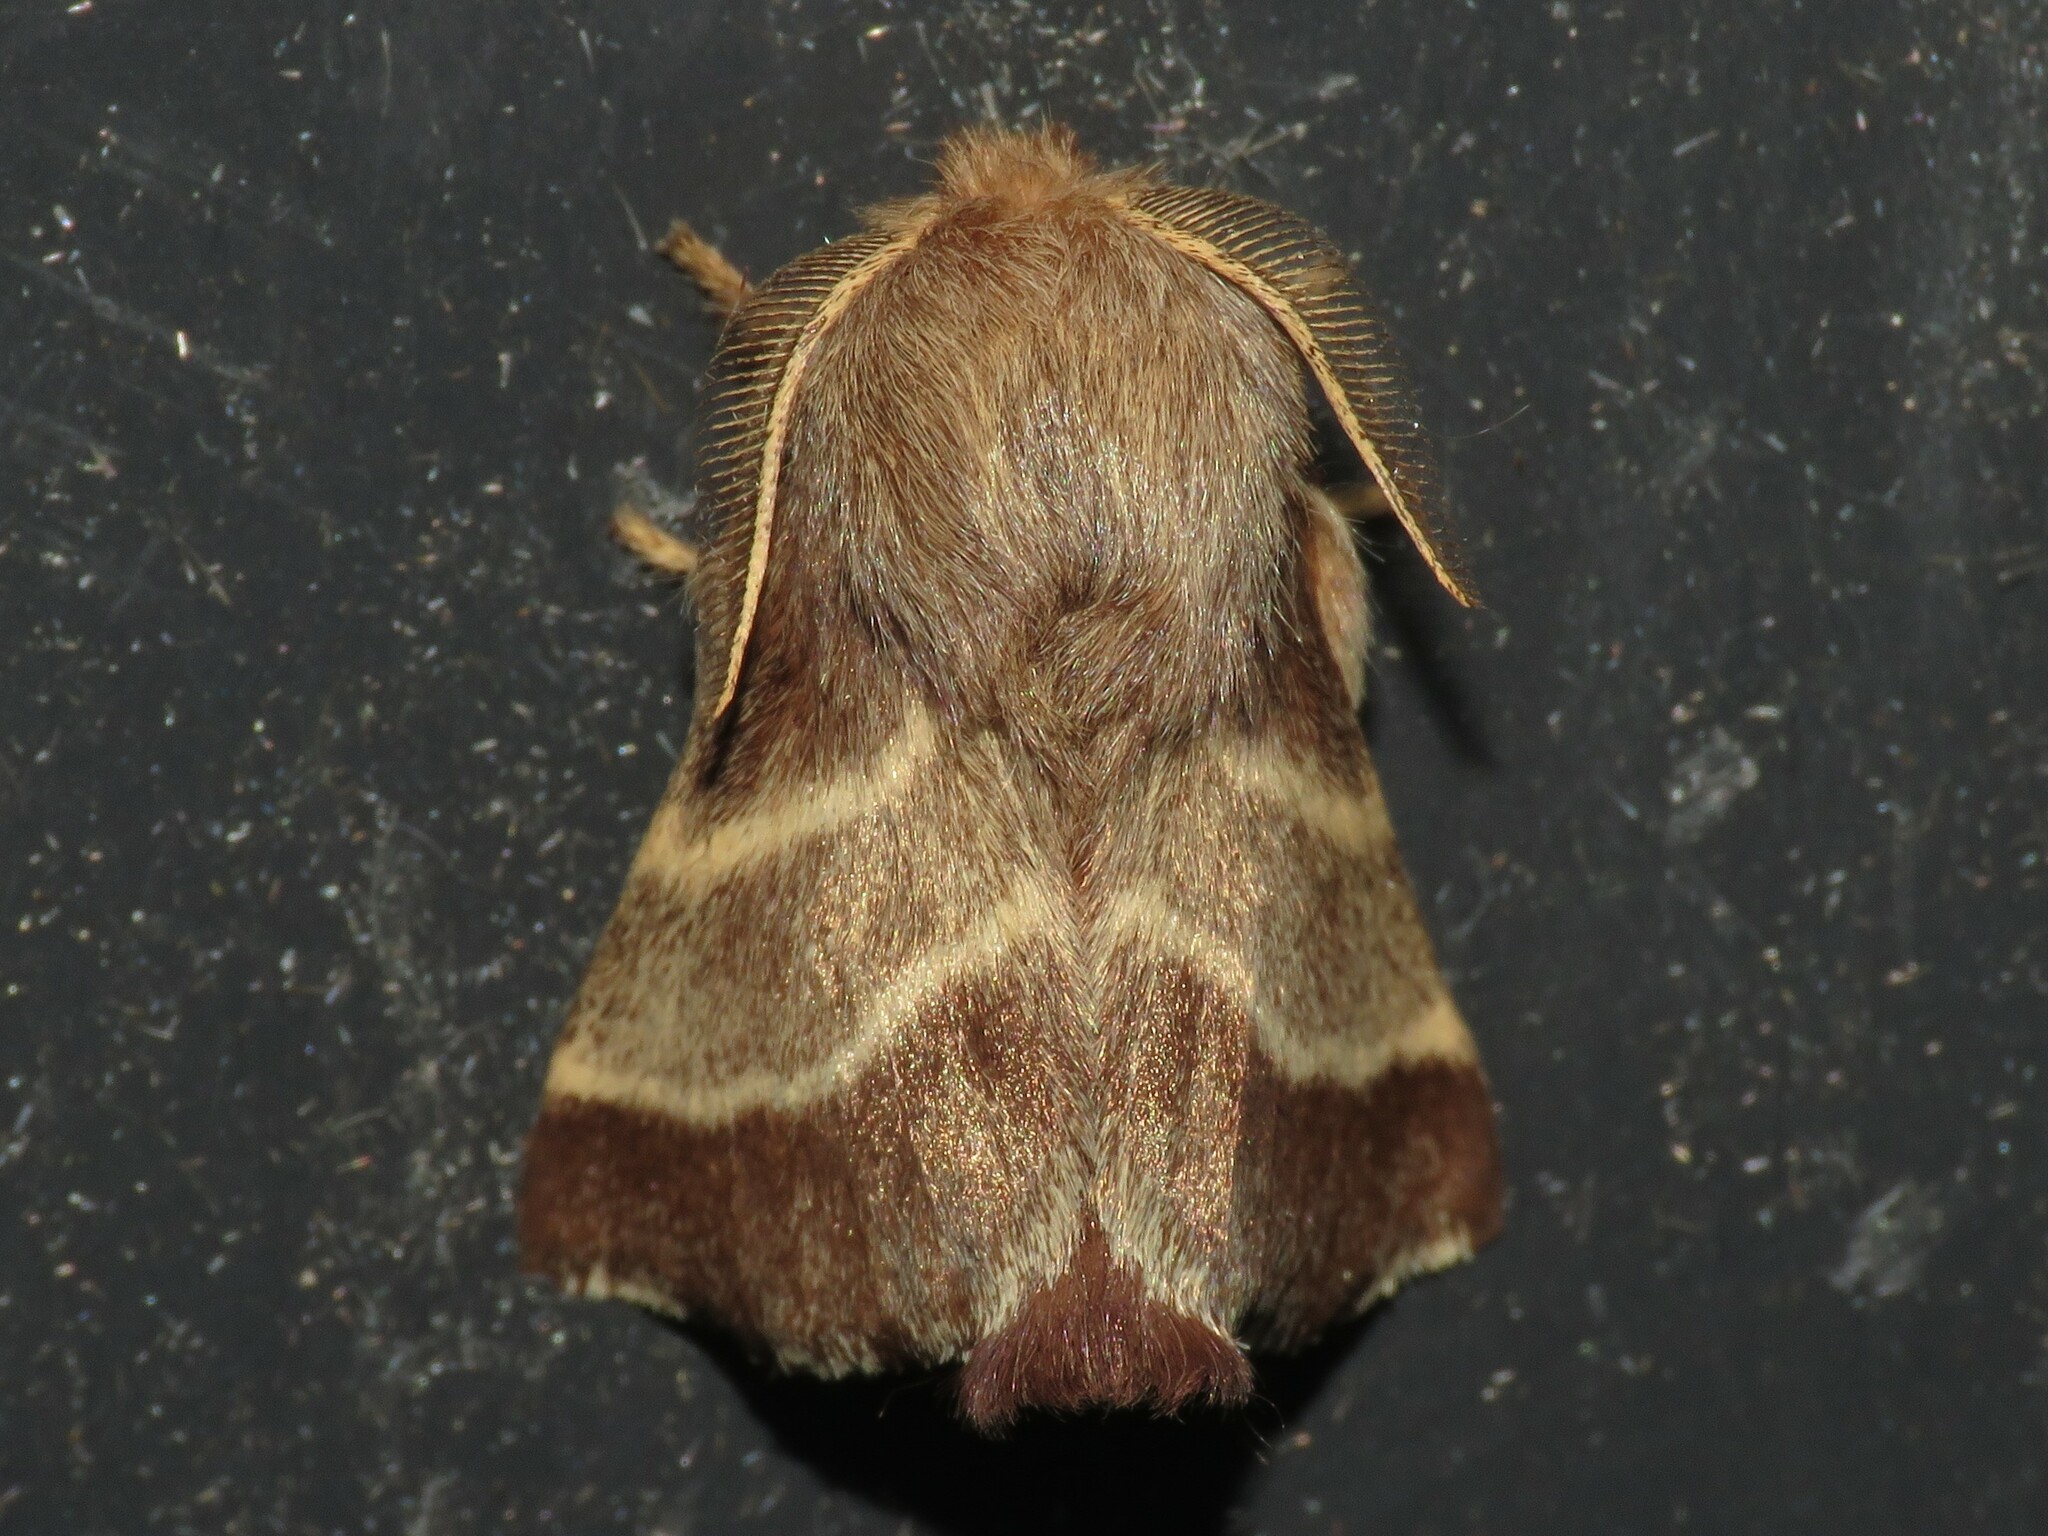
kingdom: Animalia
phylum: Arthropoda
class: Insecta
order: Lepidoptera
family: Lasiocampidae
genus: Malacosoma
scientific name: Malacosoma americana
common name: Eastern tent caterpillar moth
